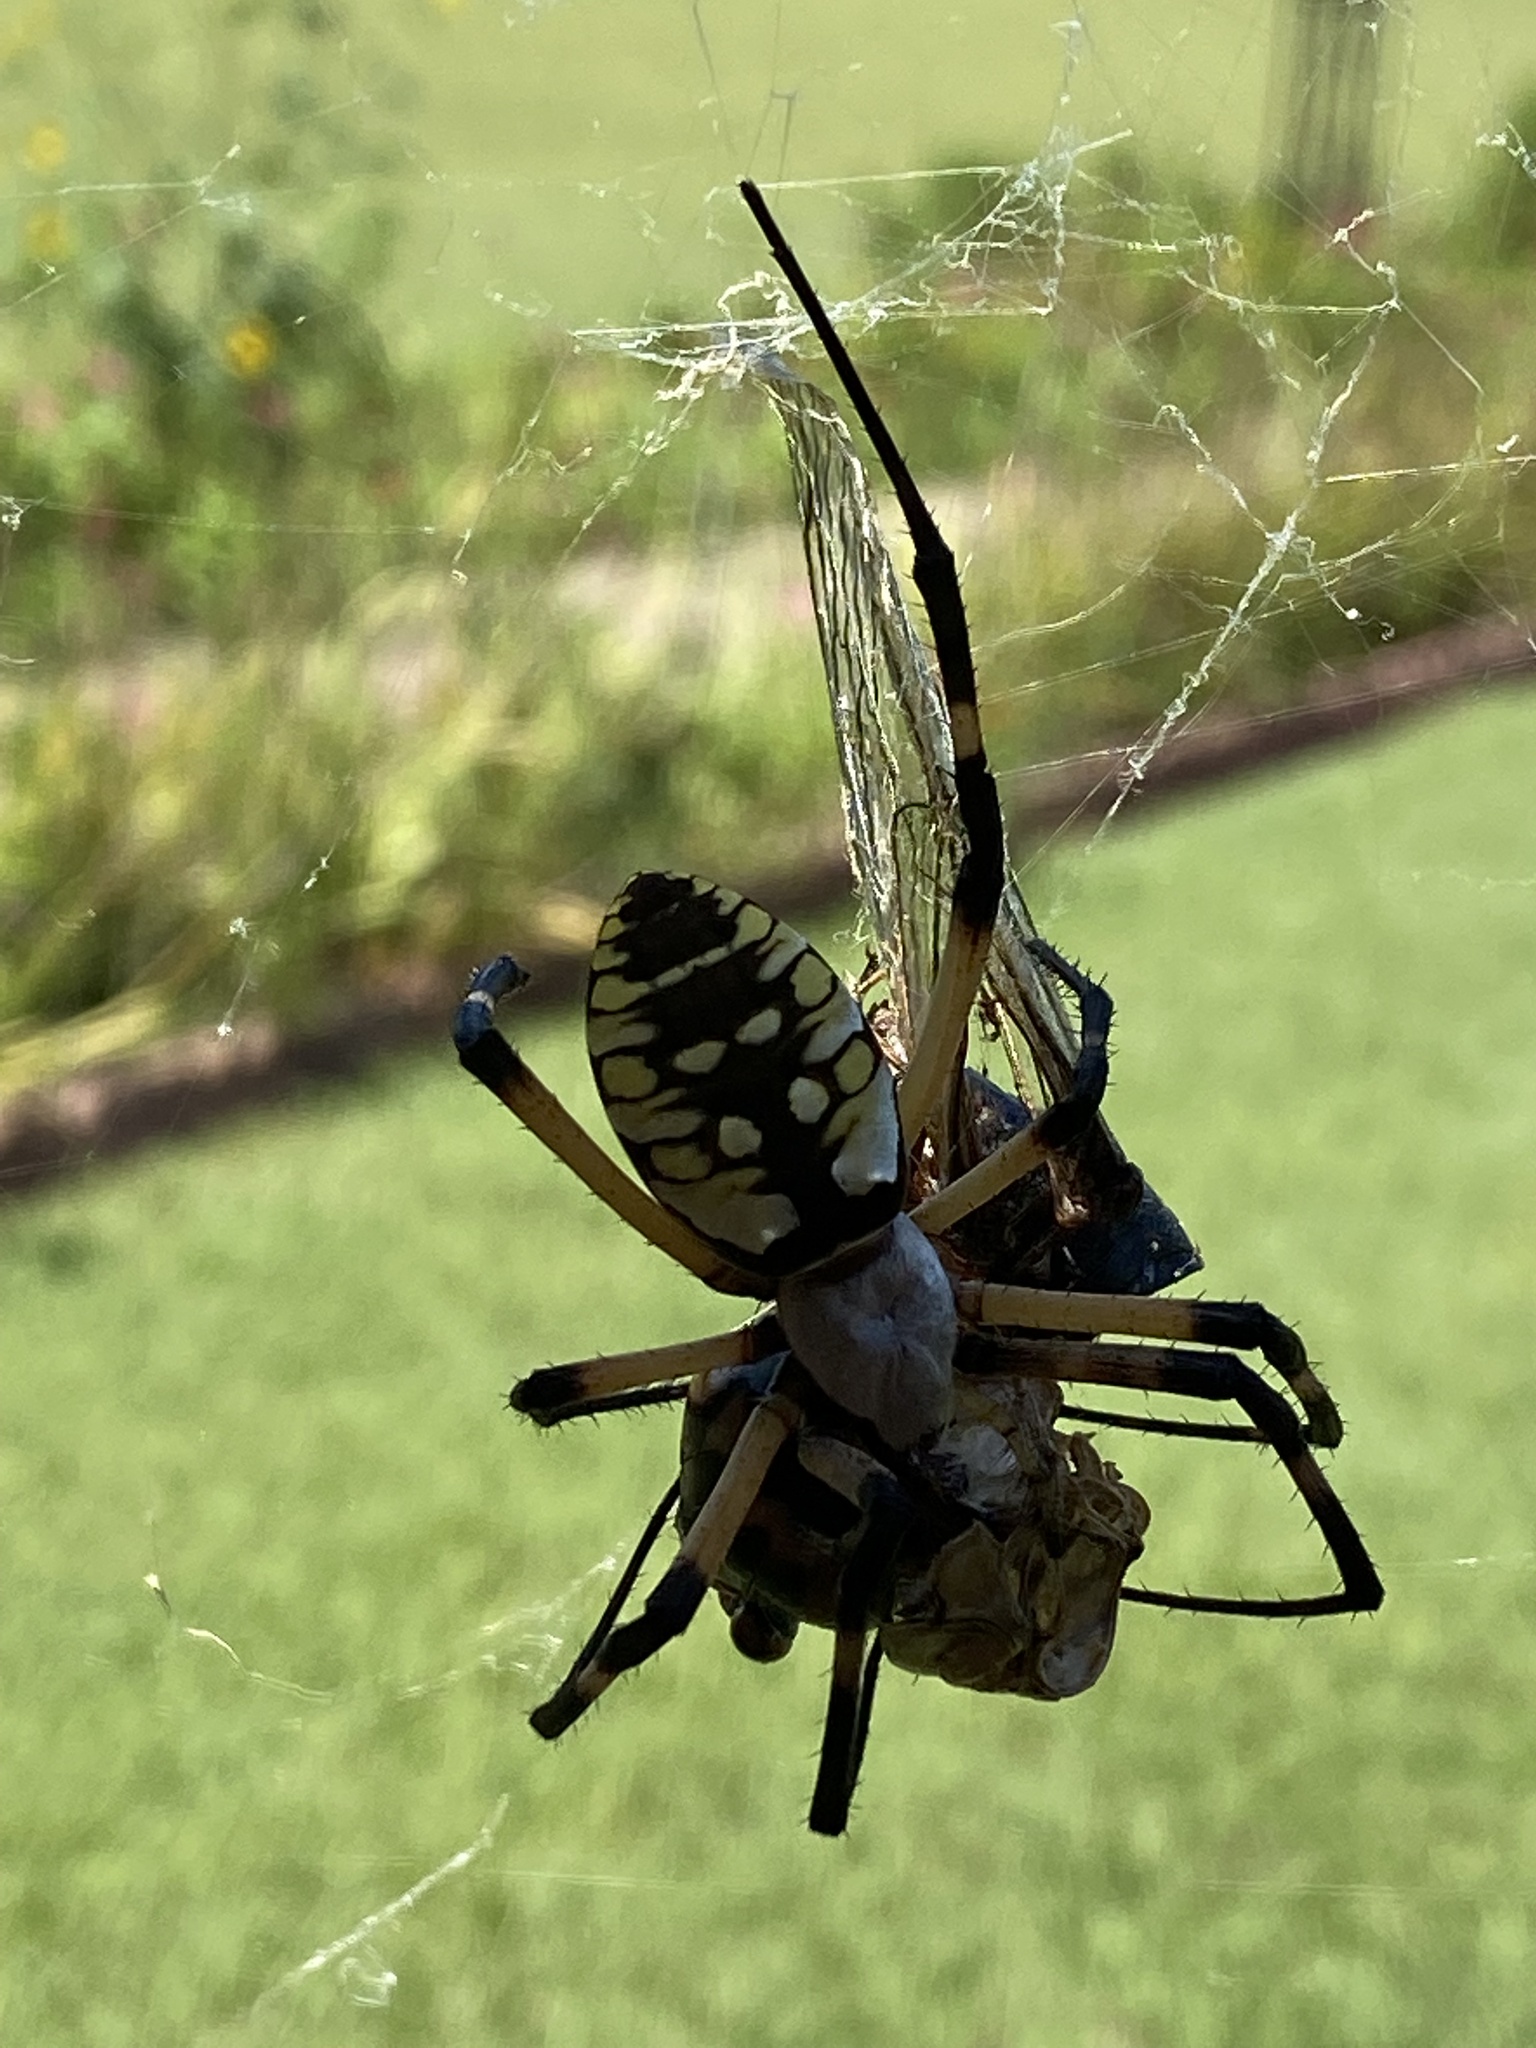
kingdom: Animalia
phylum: Arthropoda
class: Arachnida
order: Araneae
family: Araneidae
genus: Argiope
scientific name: Argiope aurantia
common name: Orb weavers
